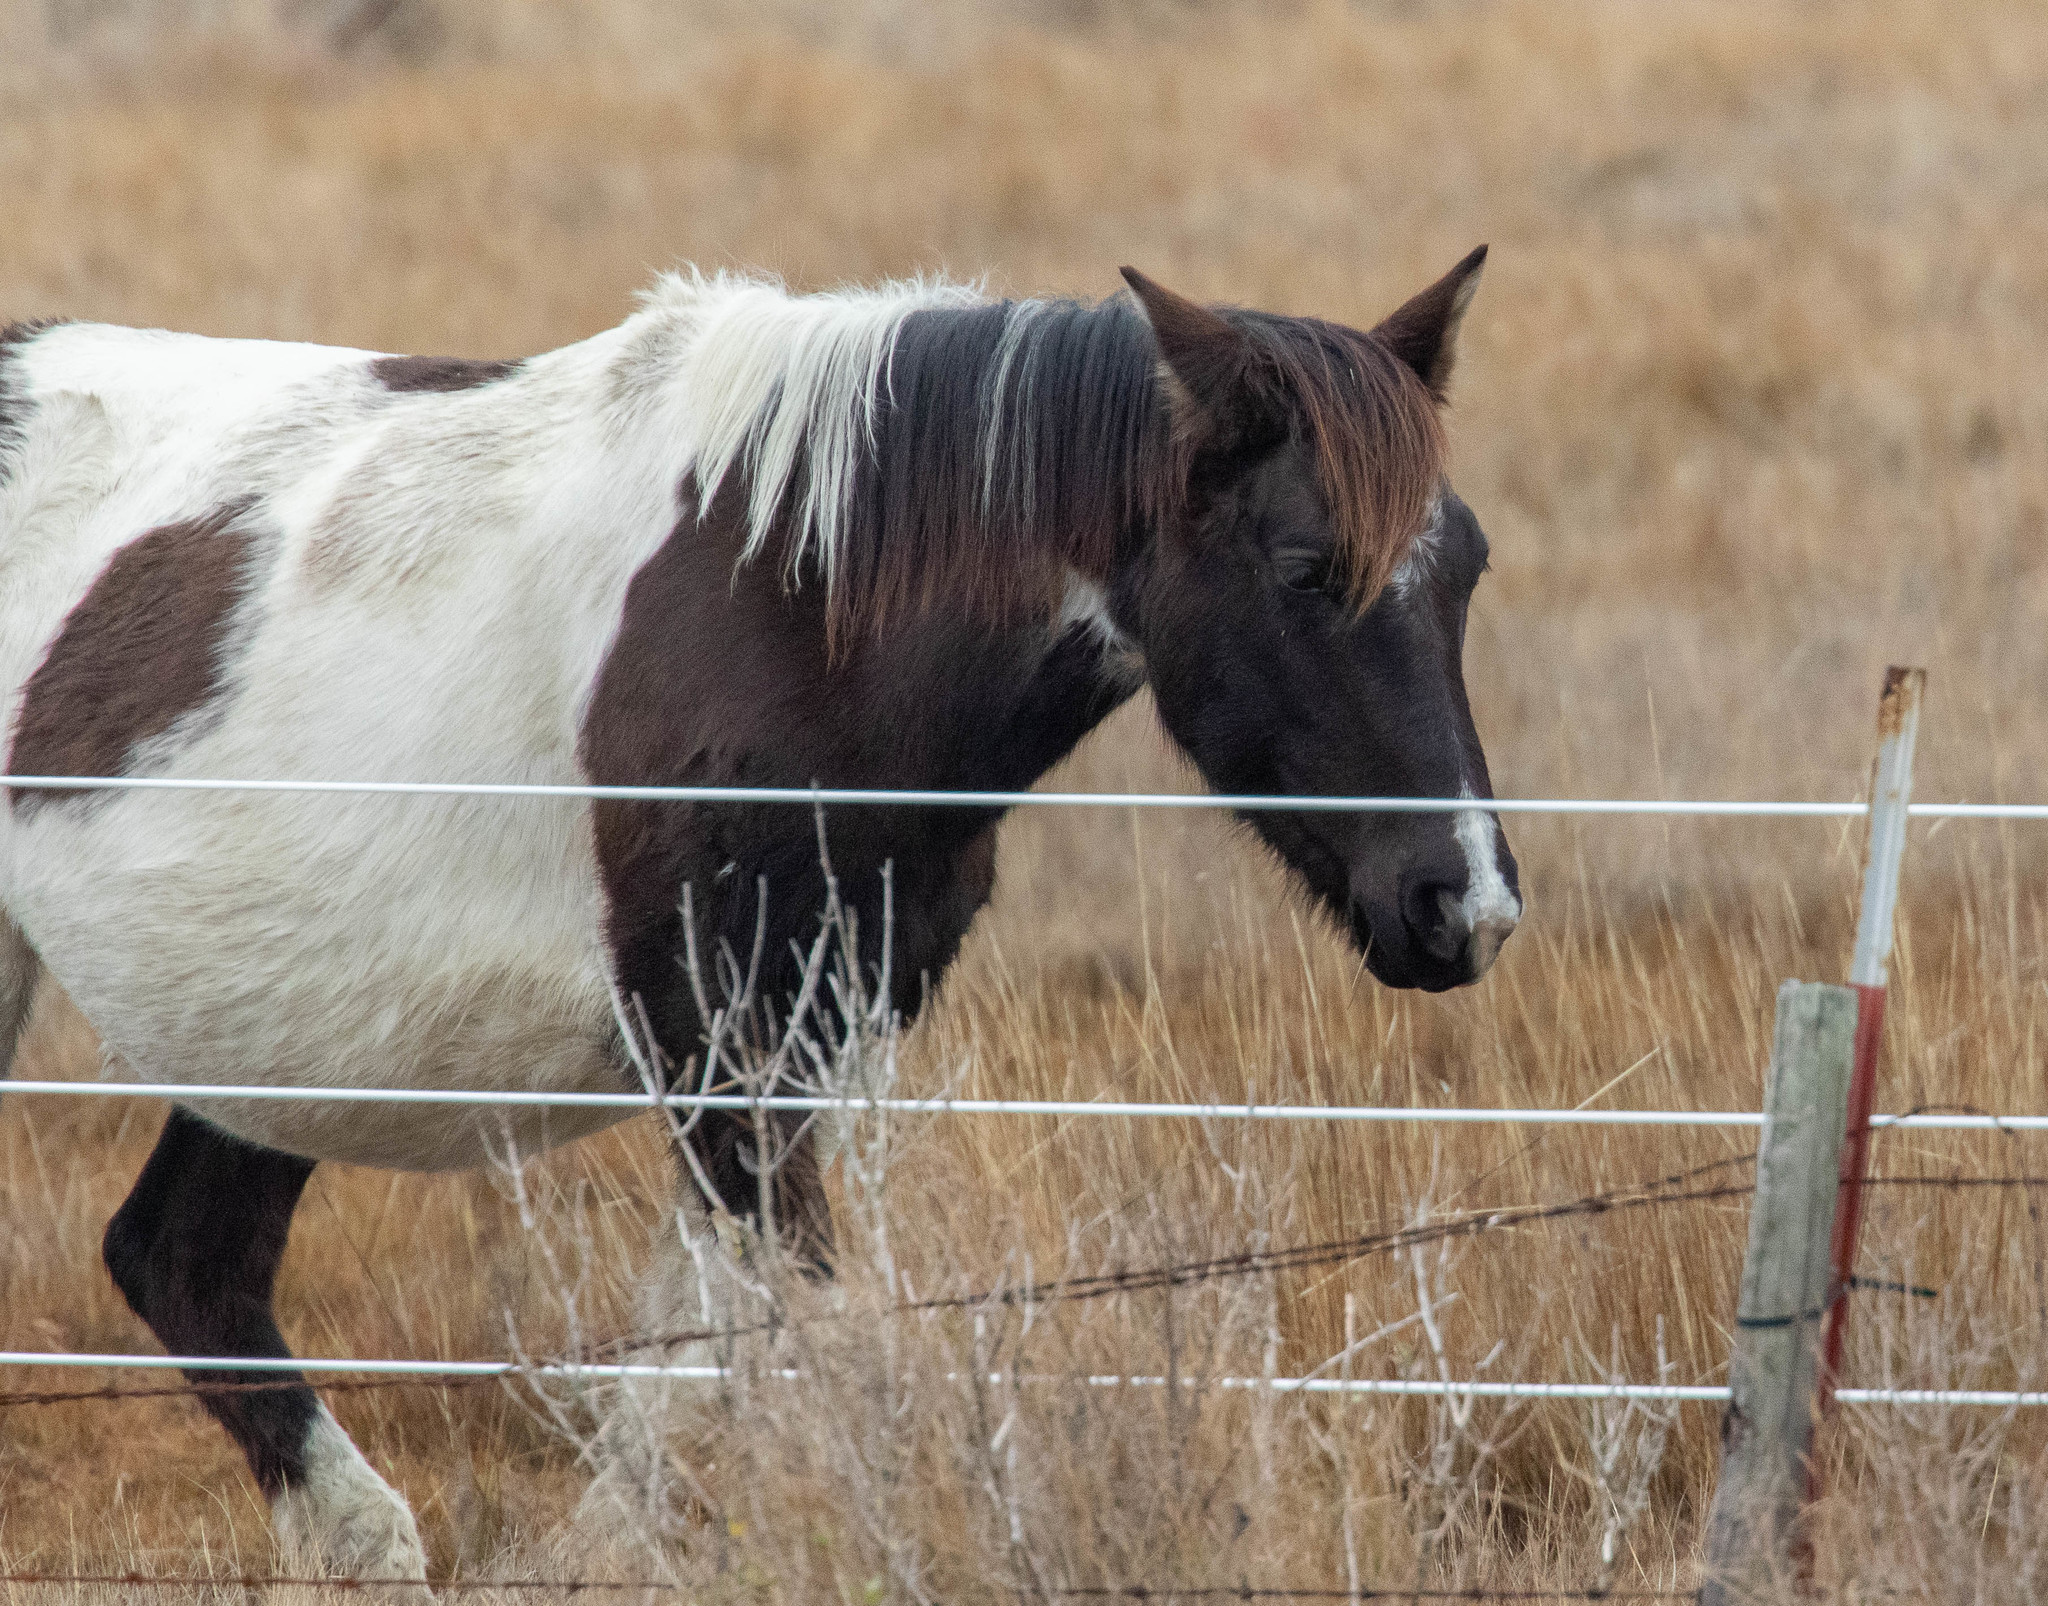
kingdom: Animalia
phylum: Chordata
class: Mammalia
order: Perissodactyla
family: Equidae
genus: Equus
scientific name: Equus caballus
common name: Horse
